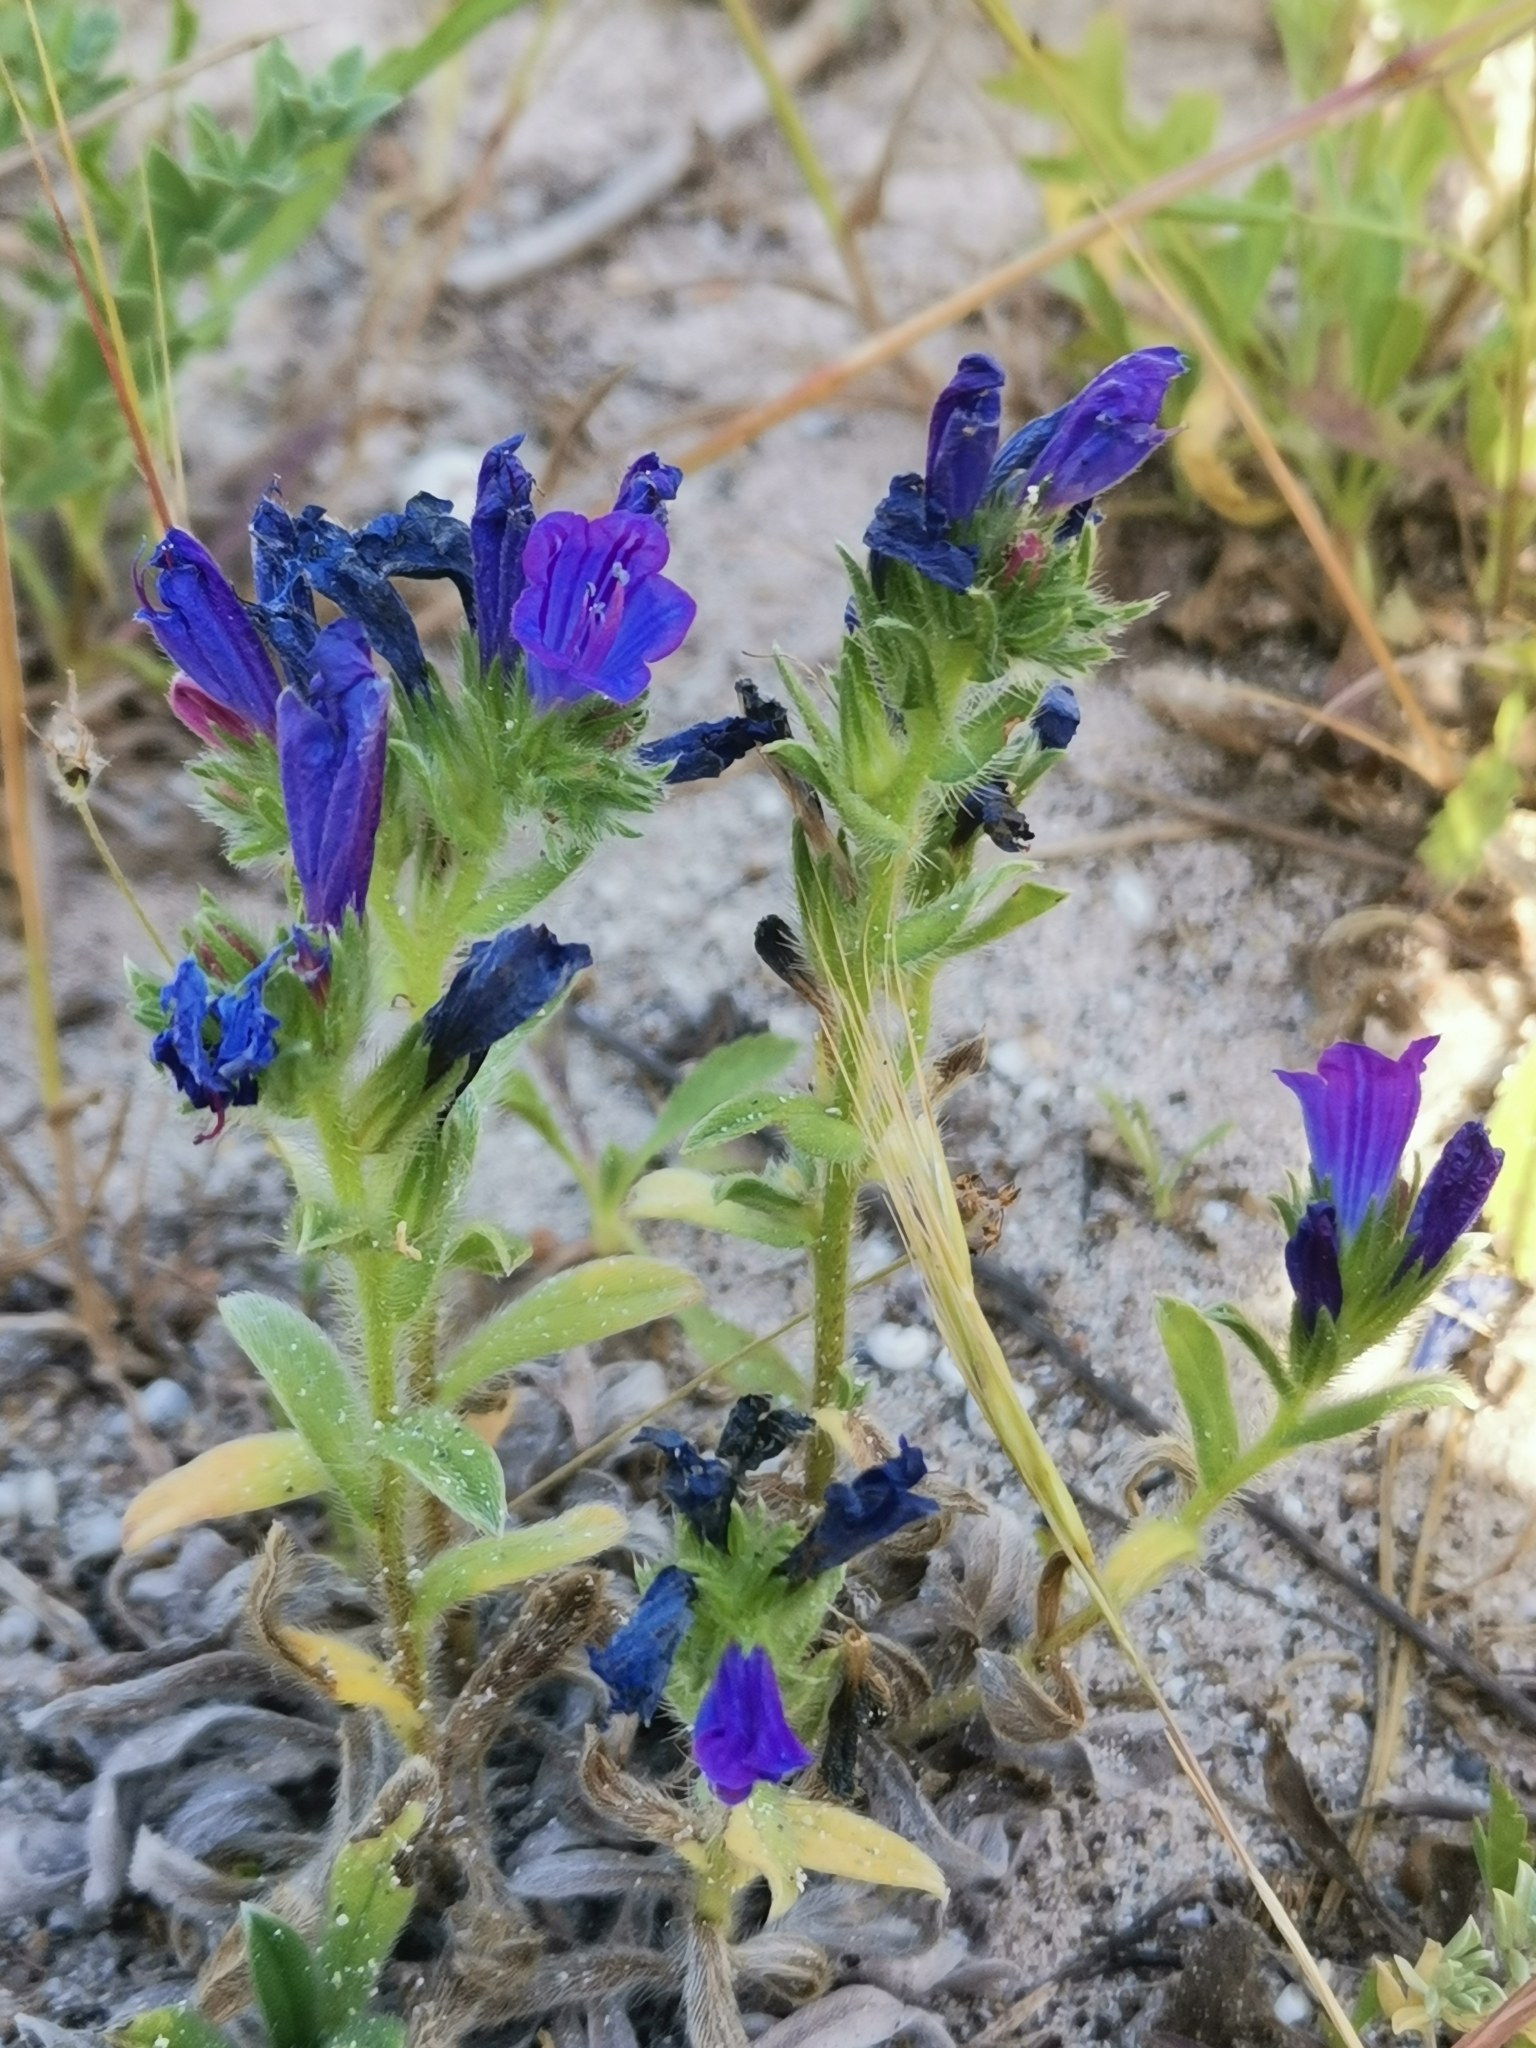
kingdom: Plantae
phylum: Tracheophyta
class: Magnoliopsida
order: Boraginales
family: Boraginaceae
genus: Echium
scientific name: Echium sabulicola
